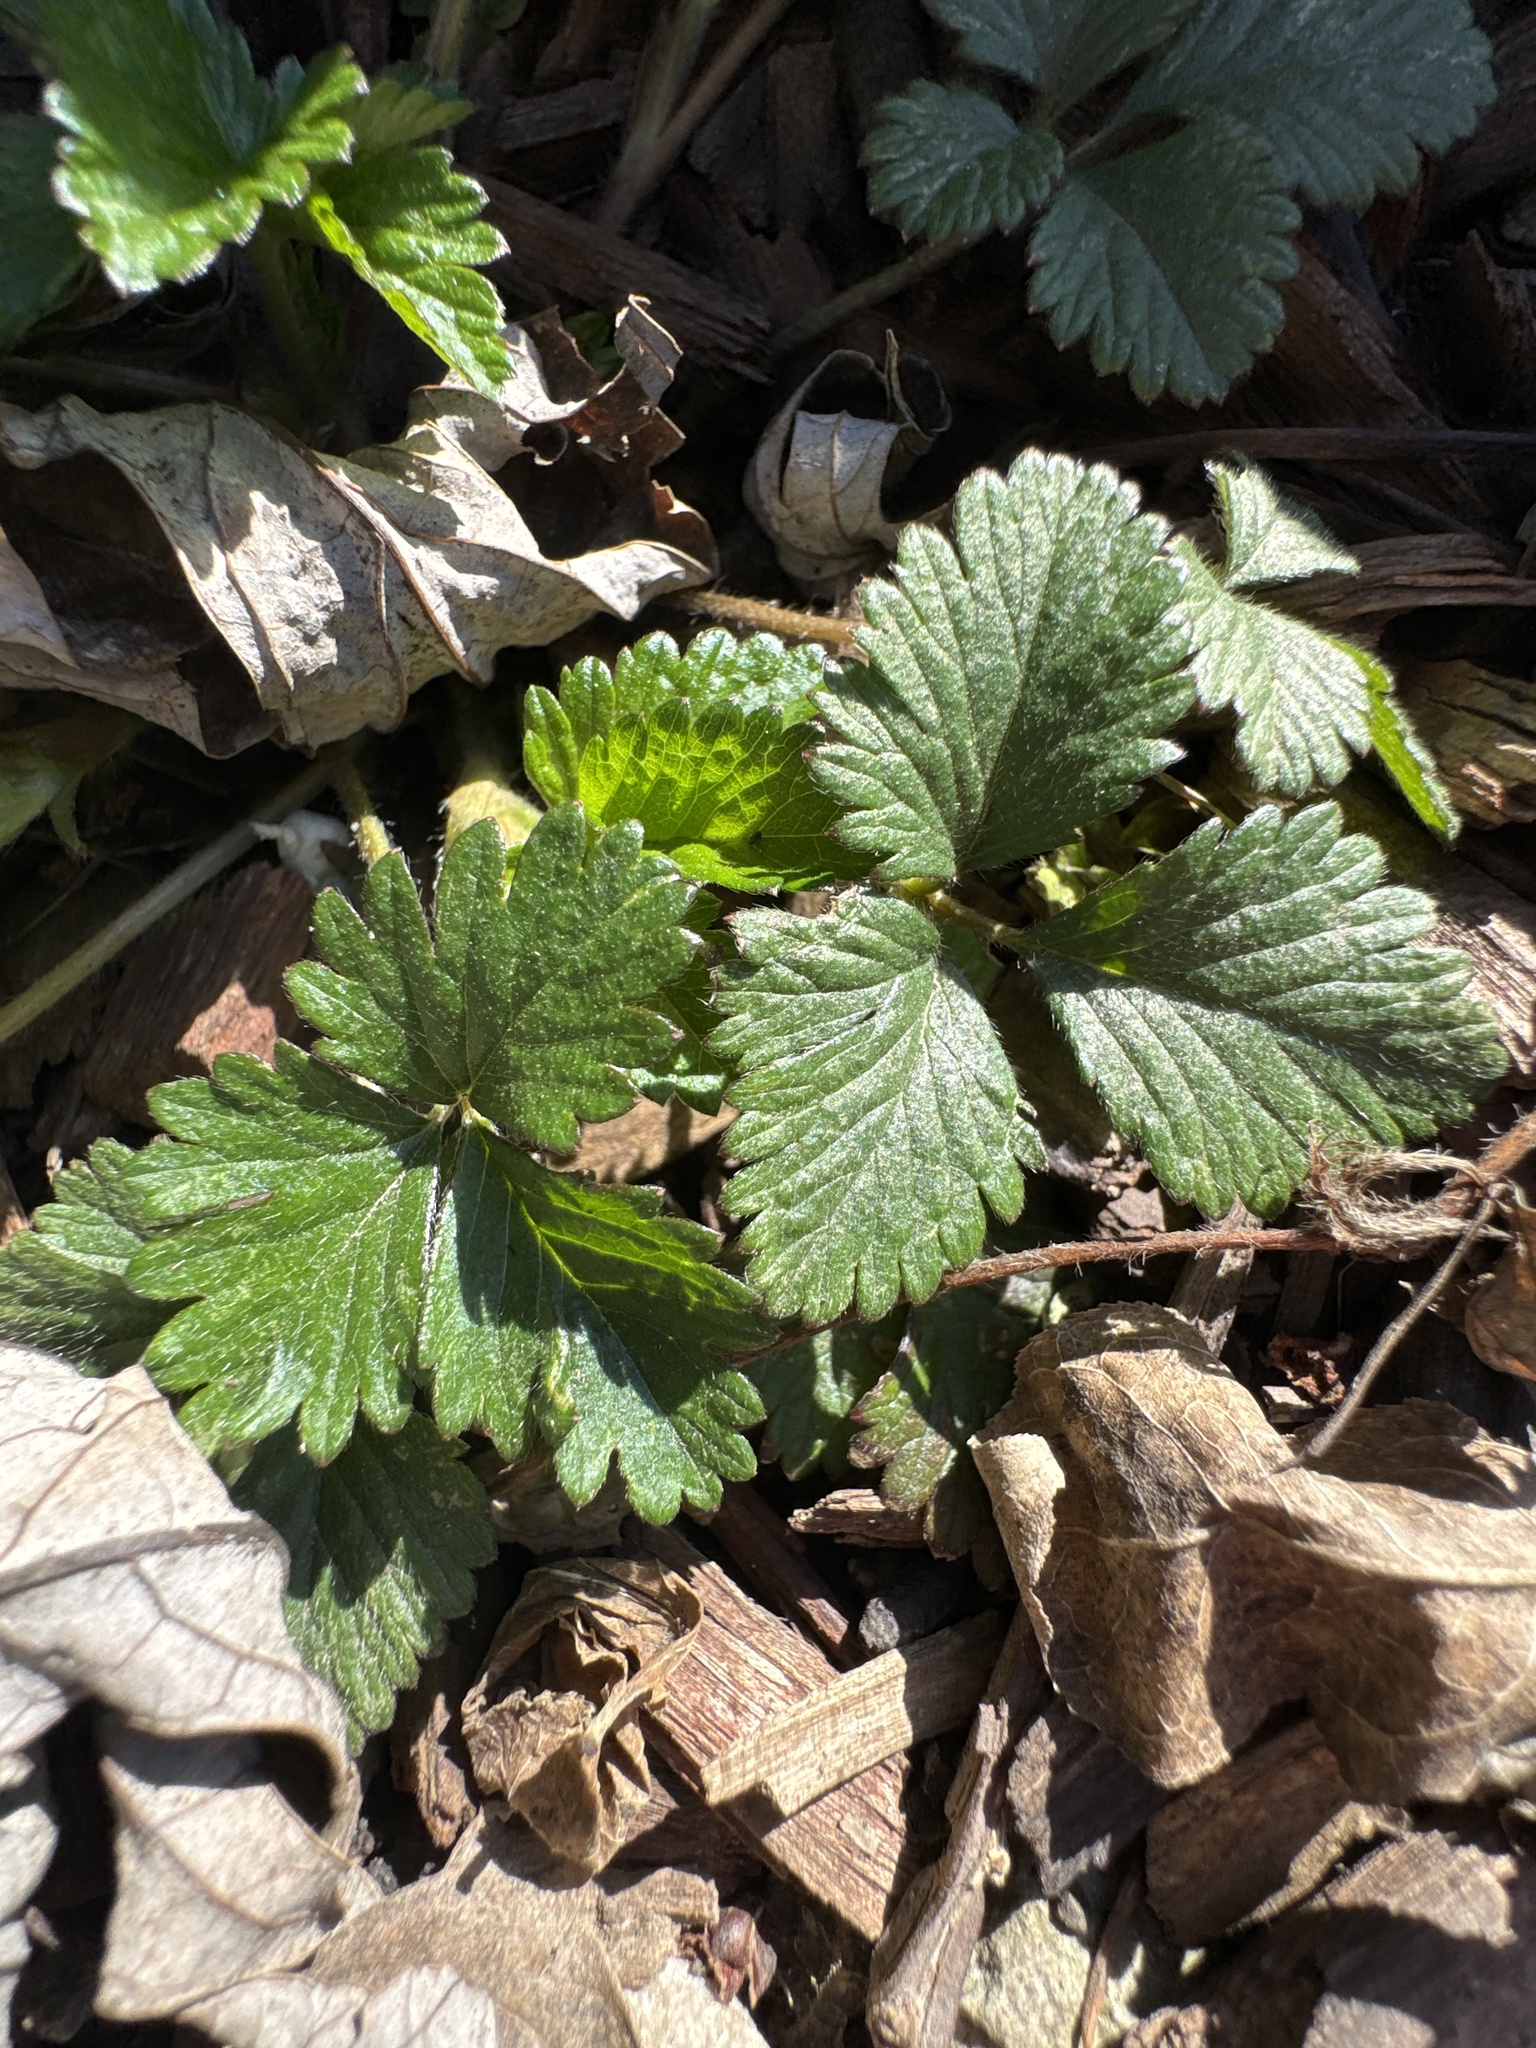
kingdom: Plantae
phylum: Tracheophyta
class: Magnoliopsida
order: Rosales
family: Rosaceae
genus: Potentilla
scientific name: Potentilla indica
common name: Yellow-flowered strawberry
